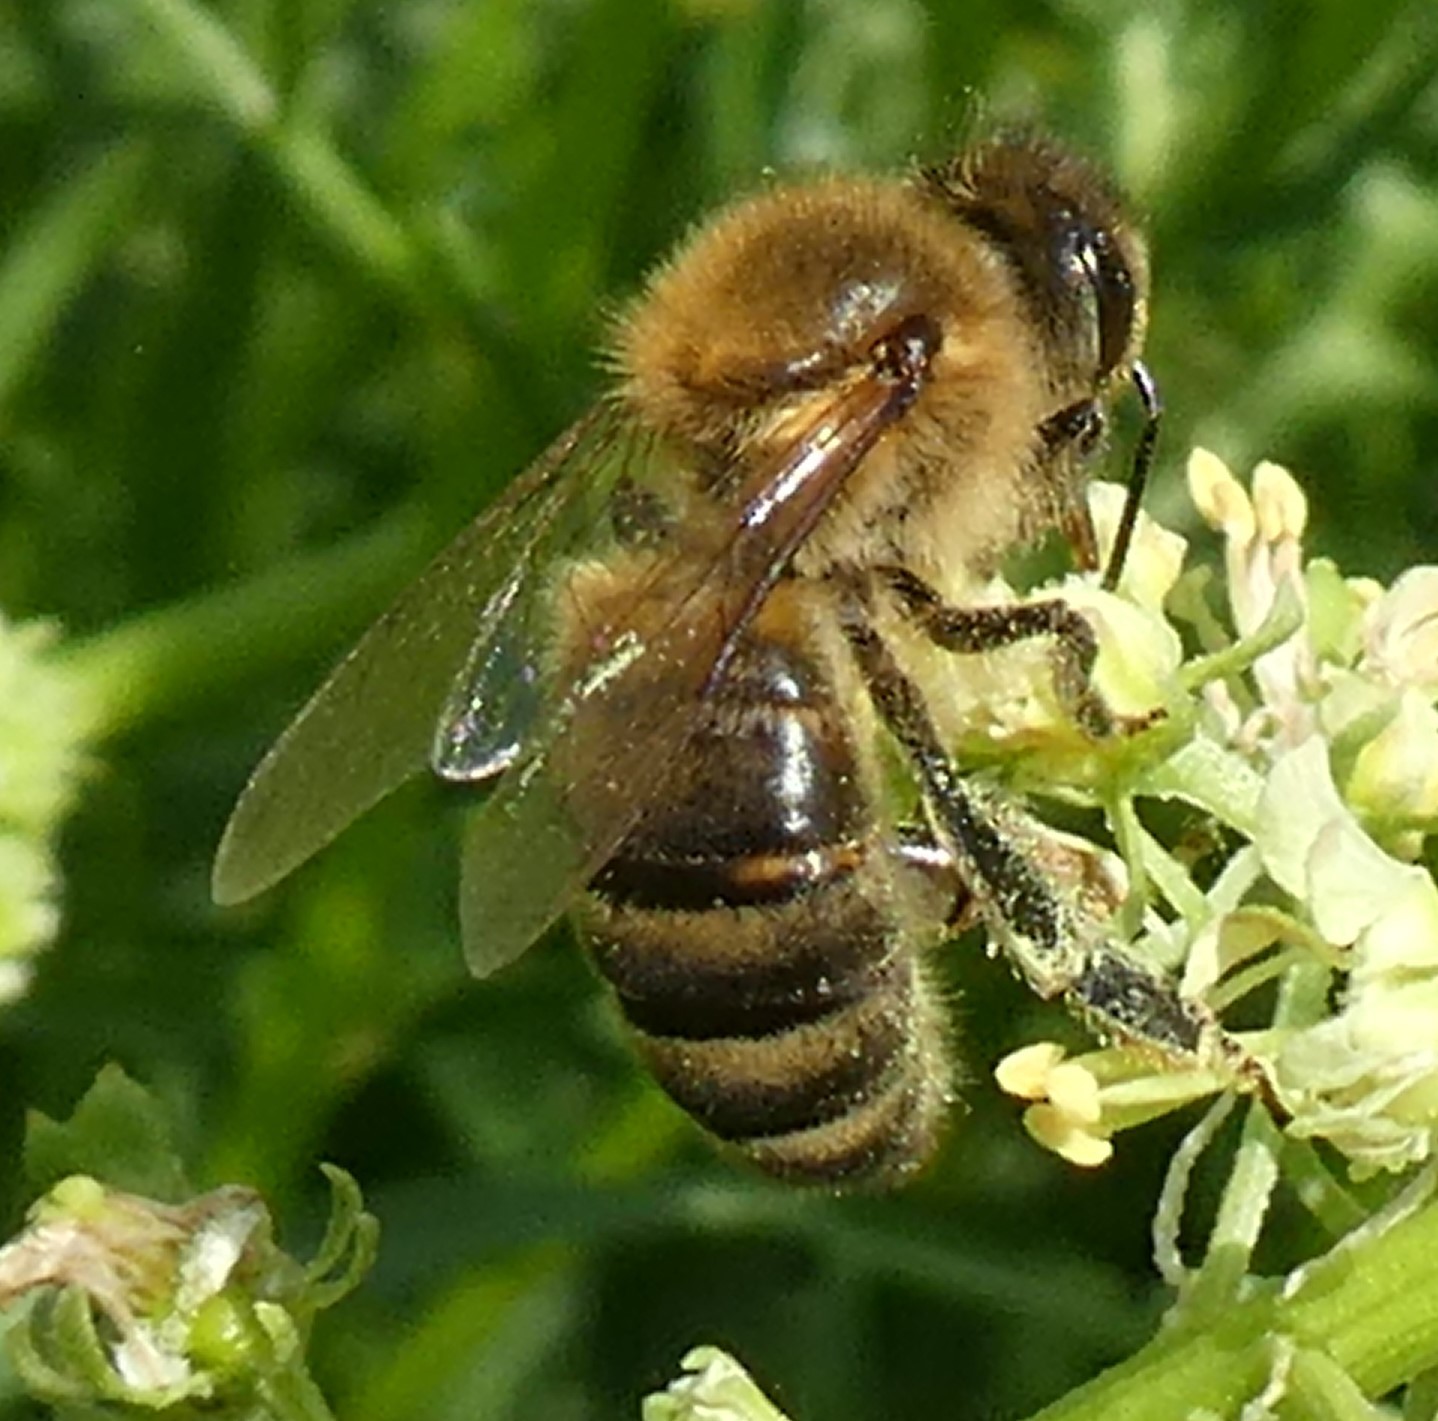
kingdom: Animalia
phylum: Arthropoda
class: Insecta
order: Hymenoptera
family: Apidae
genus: Apis
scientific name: Apis mellifera
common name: Honey bee
